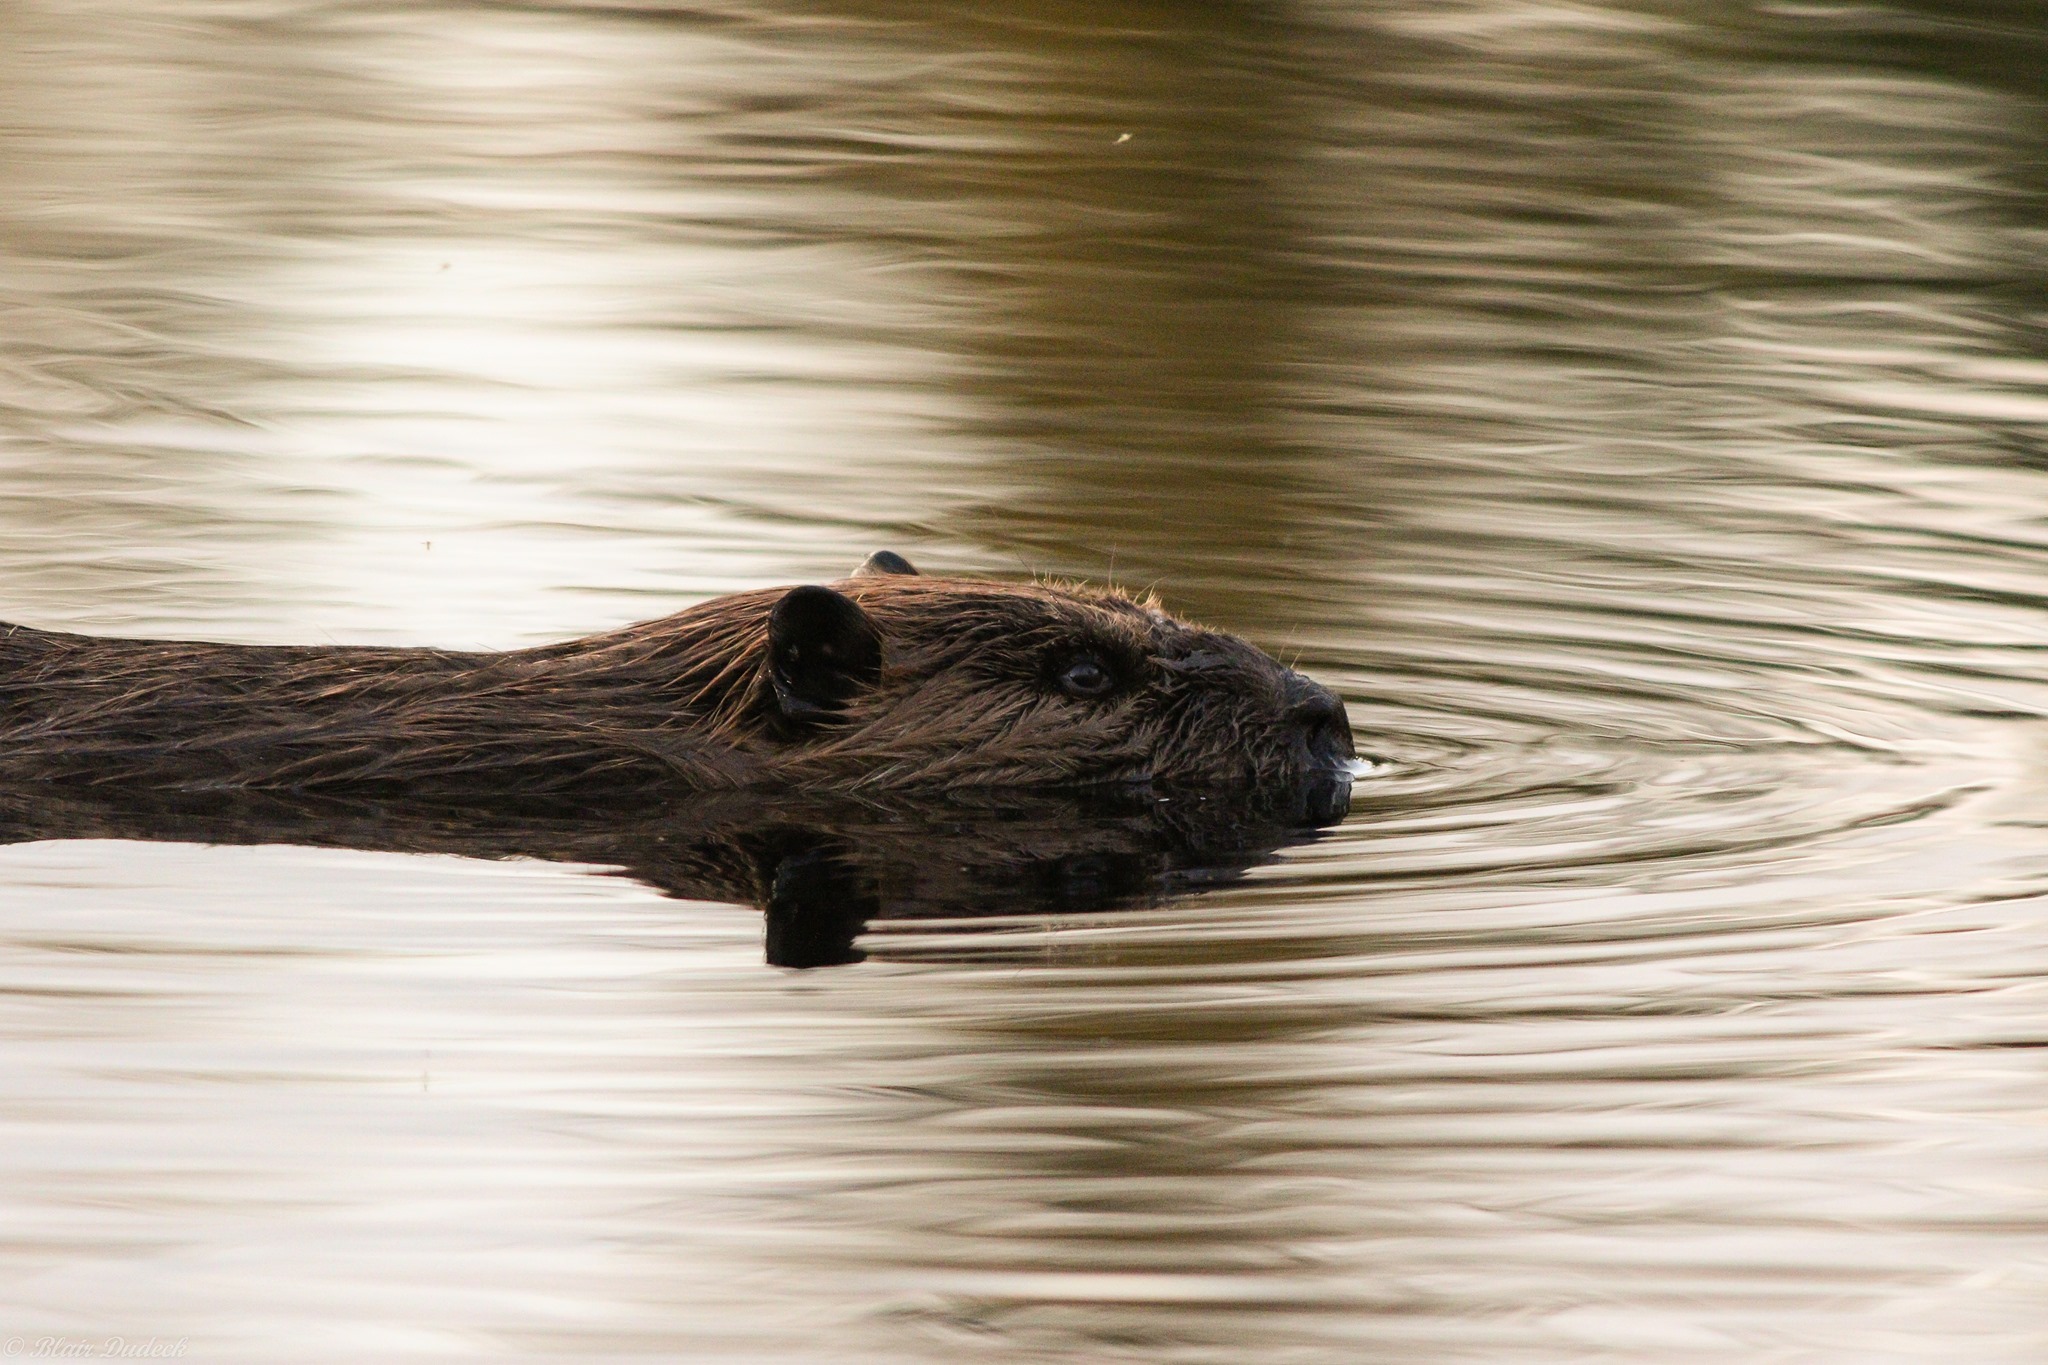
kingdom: Animalia
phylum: Chordata
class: Mammalia
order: Rodentia
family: Castoridae
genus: Castor
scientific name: Castor canadensis
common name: American beaver
